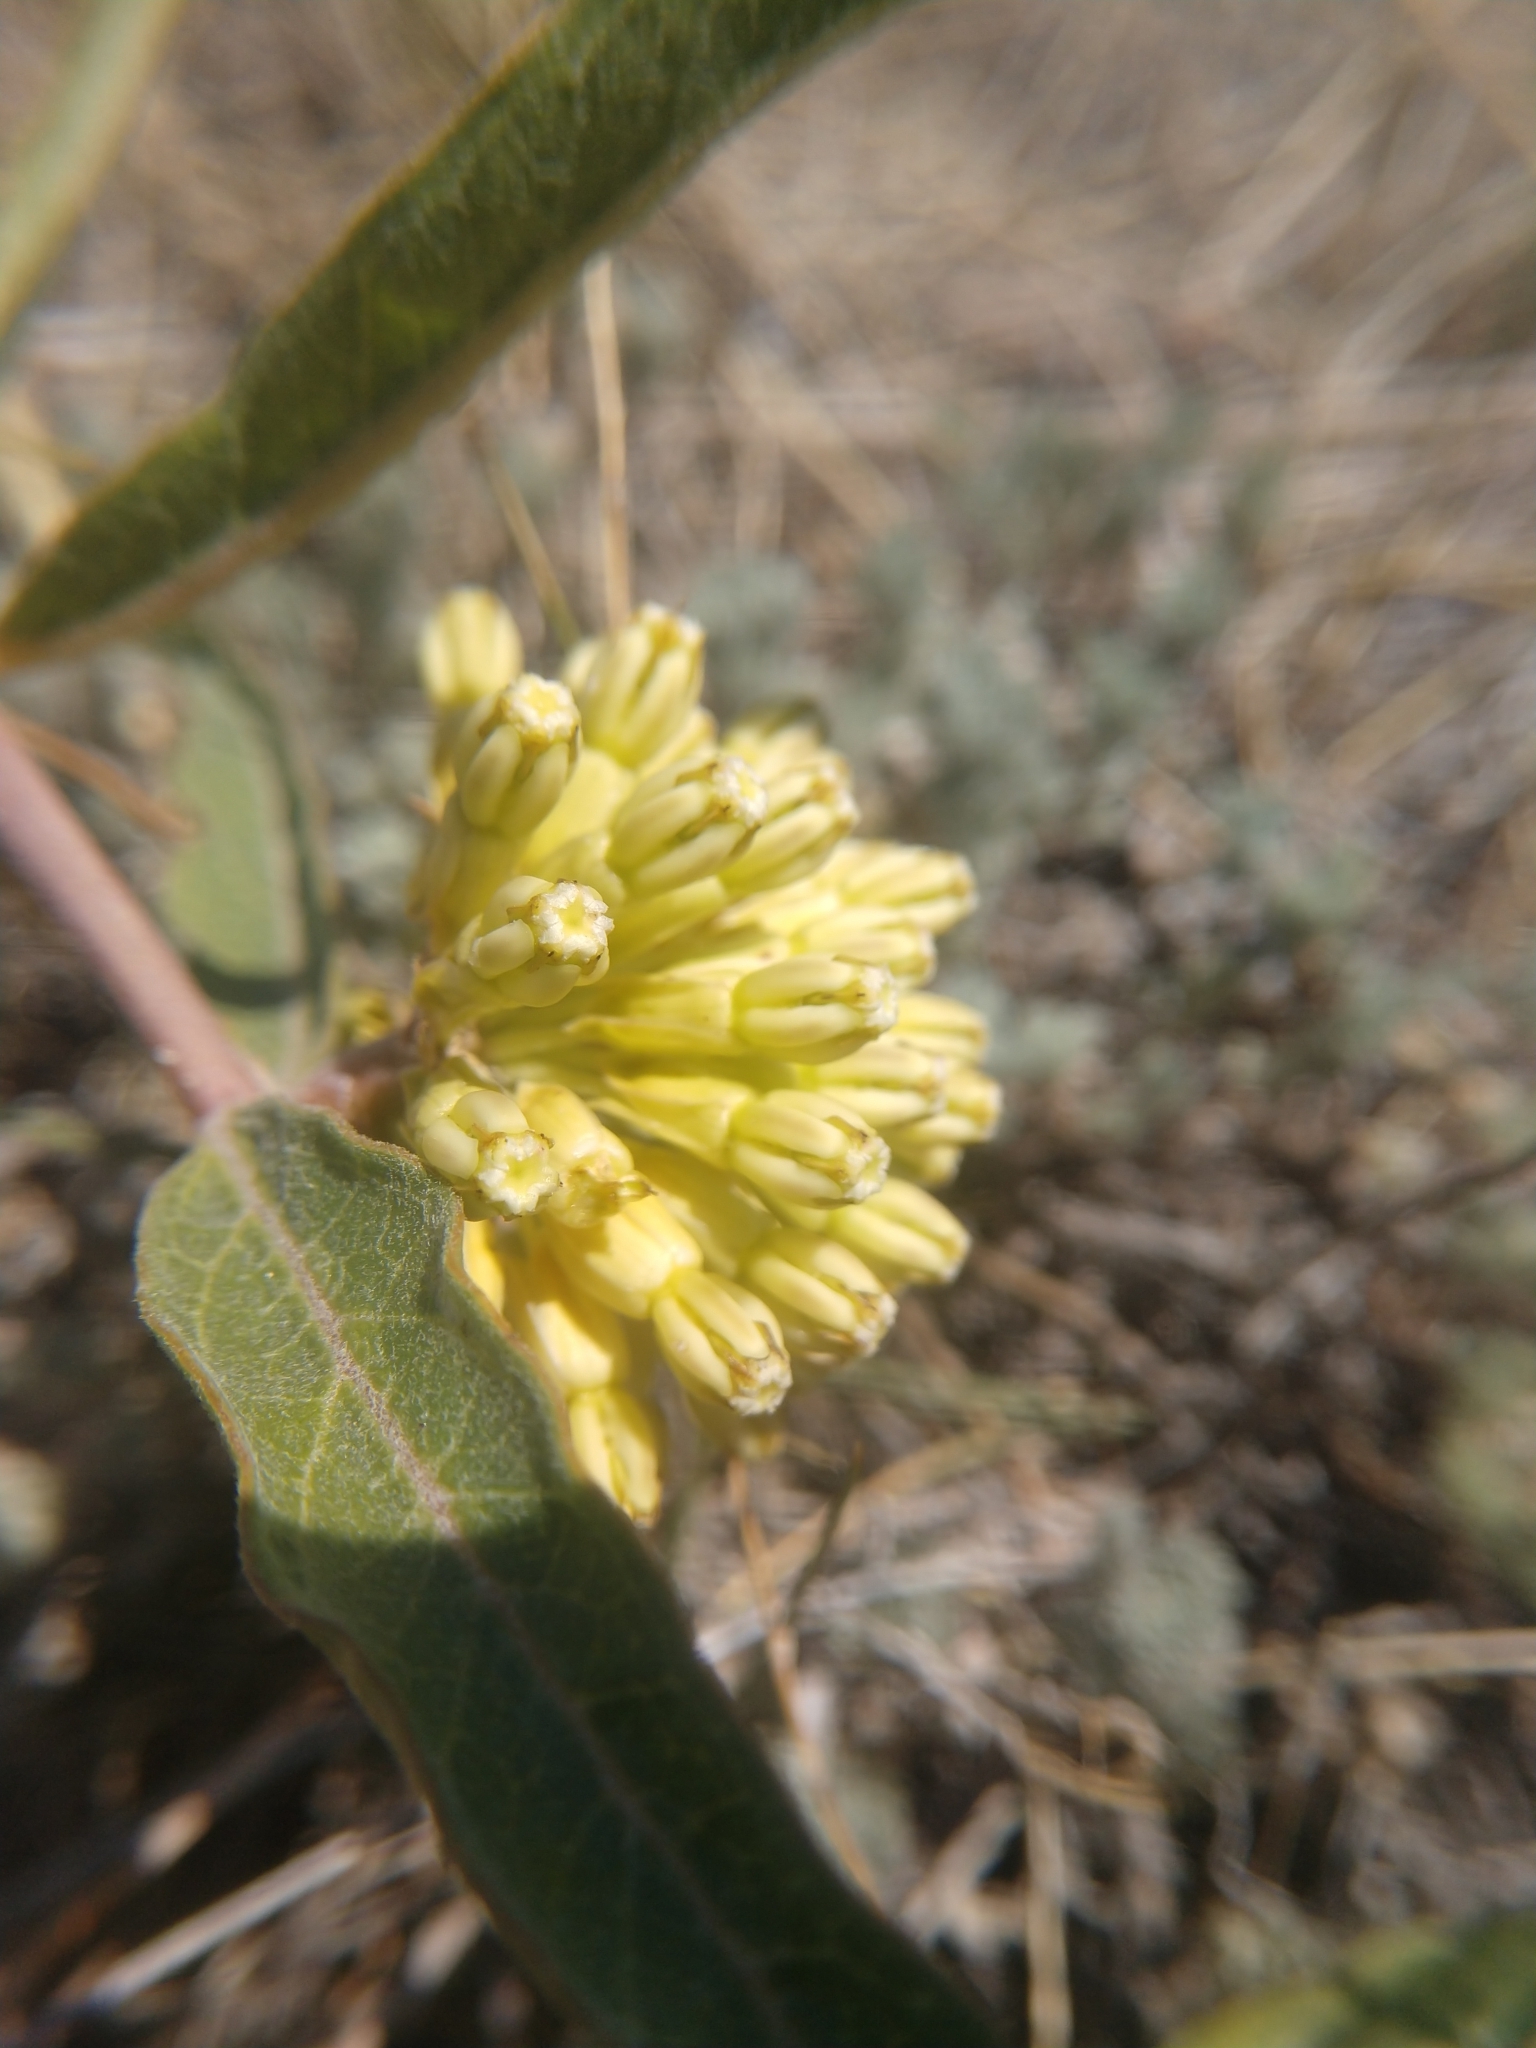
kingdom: Plantae
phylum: Tracheophyta
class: Magnoliopsida
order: Gentianales
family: Apocynaceae
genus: Asclepias
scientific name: Asclepias viridiflora
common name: Green comet milkweed
